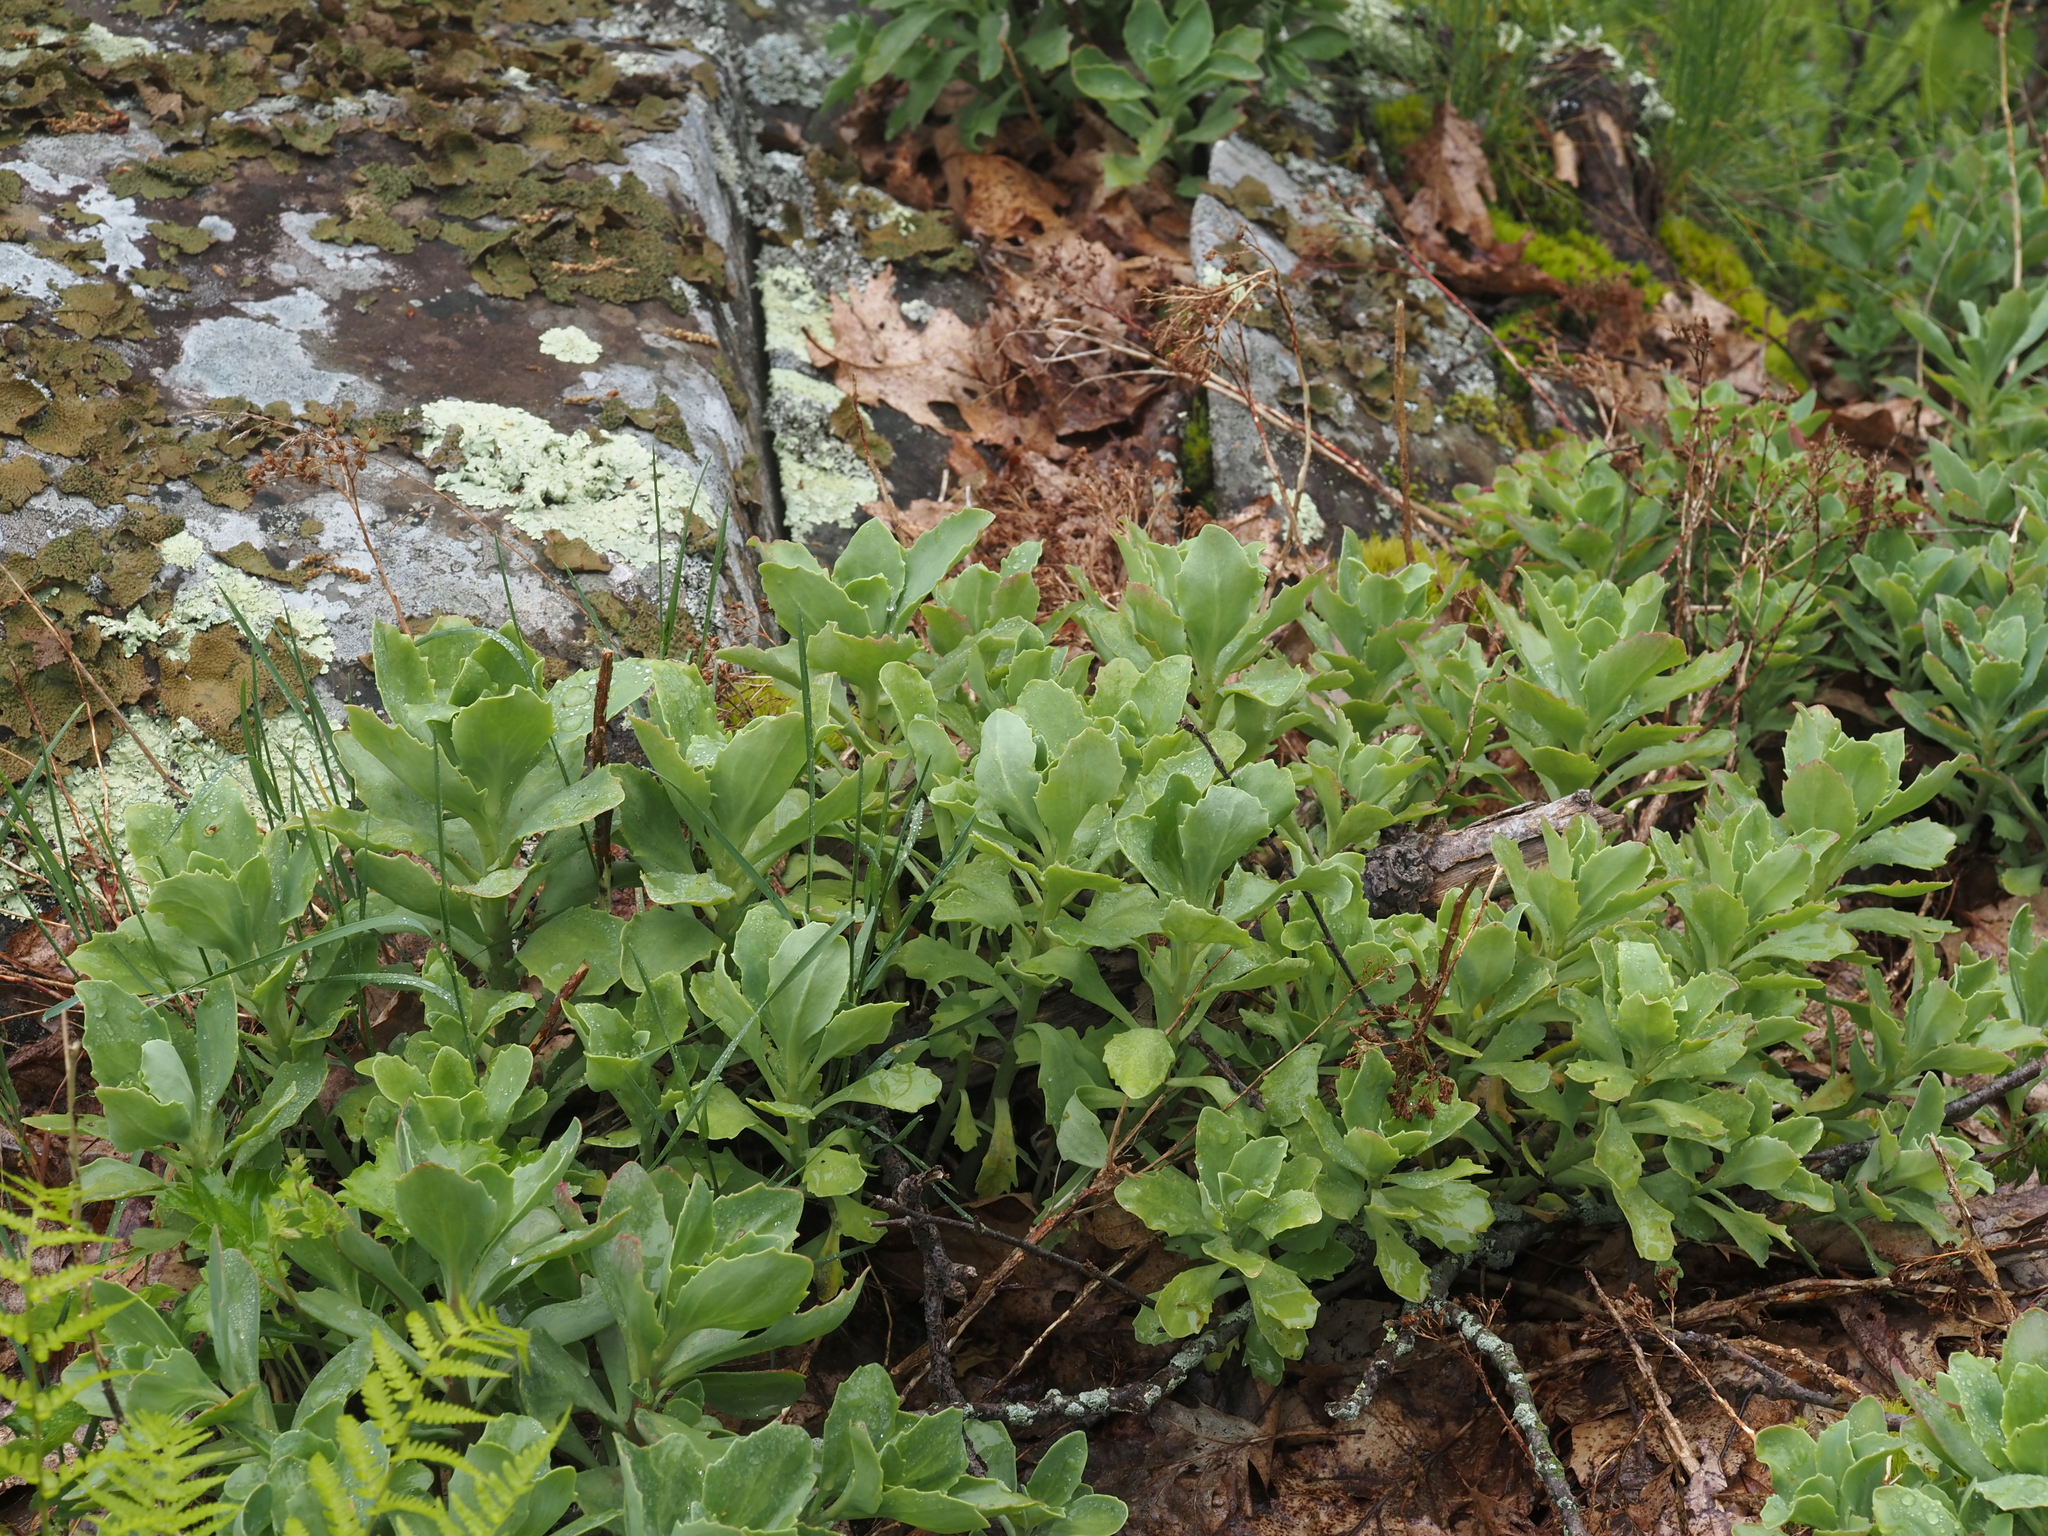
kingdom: Plantae
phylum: Tracheophyta
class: Magnoliopsida
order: Saxifragales
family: Crassulaceae
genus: Hylotelephium
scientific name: Hylotelephium telephioides
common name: Allegheny stonecrop
